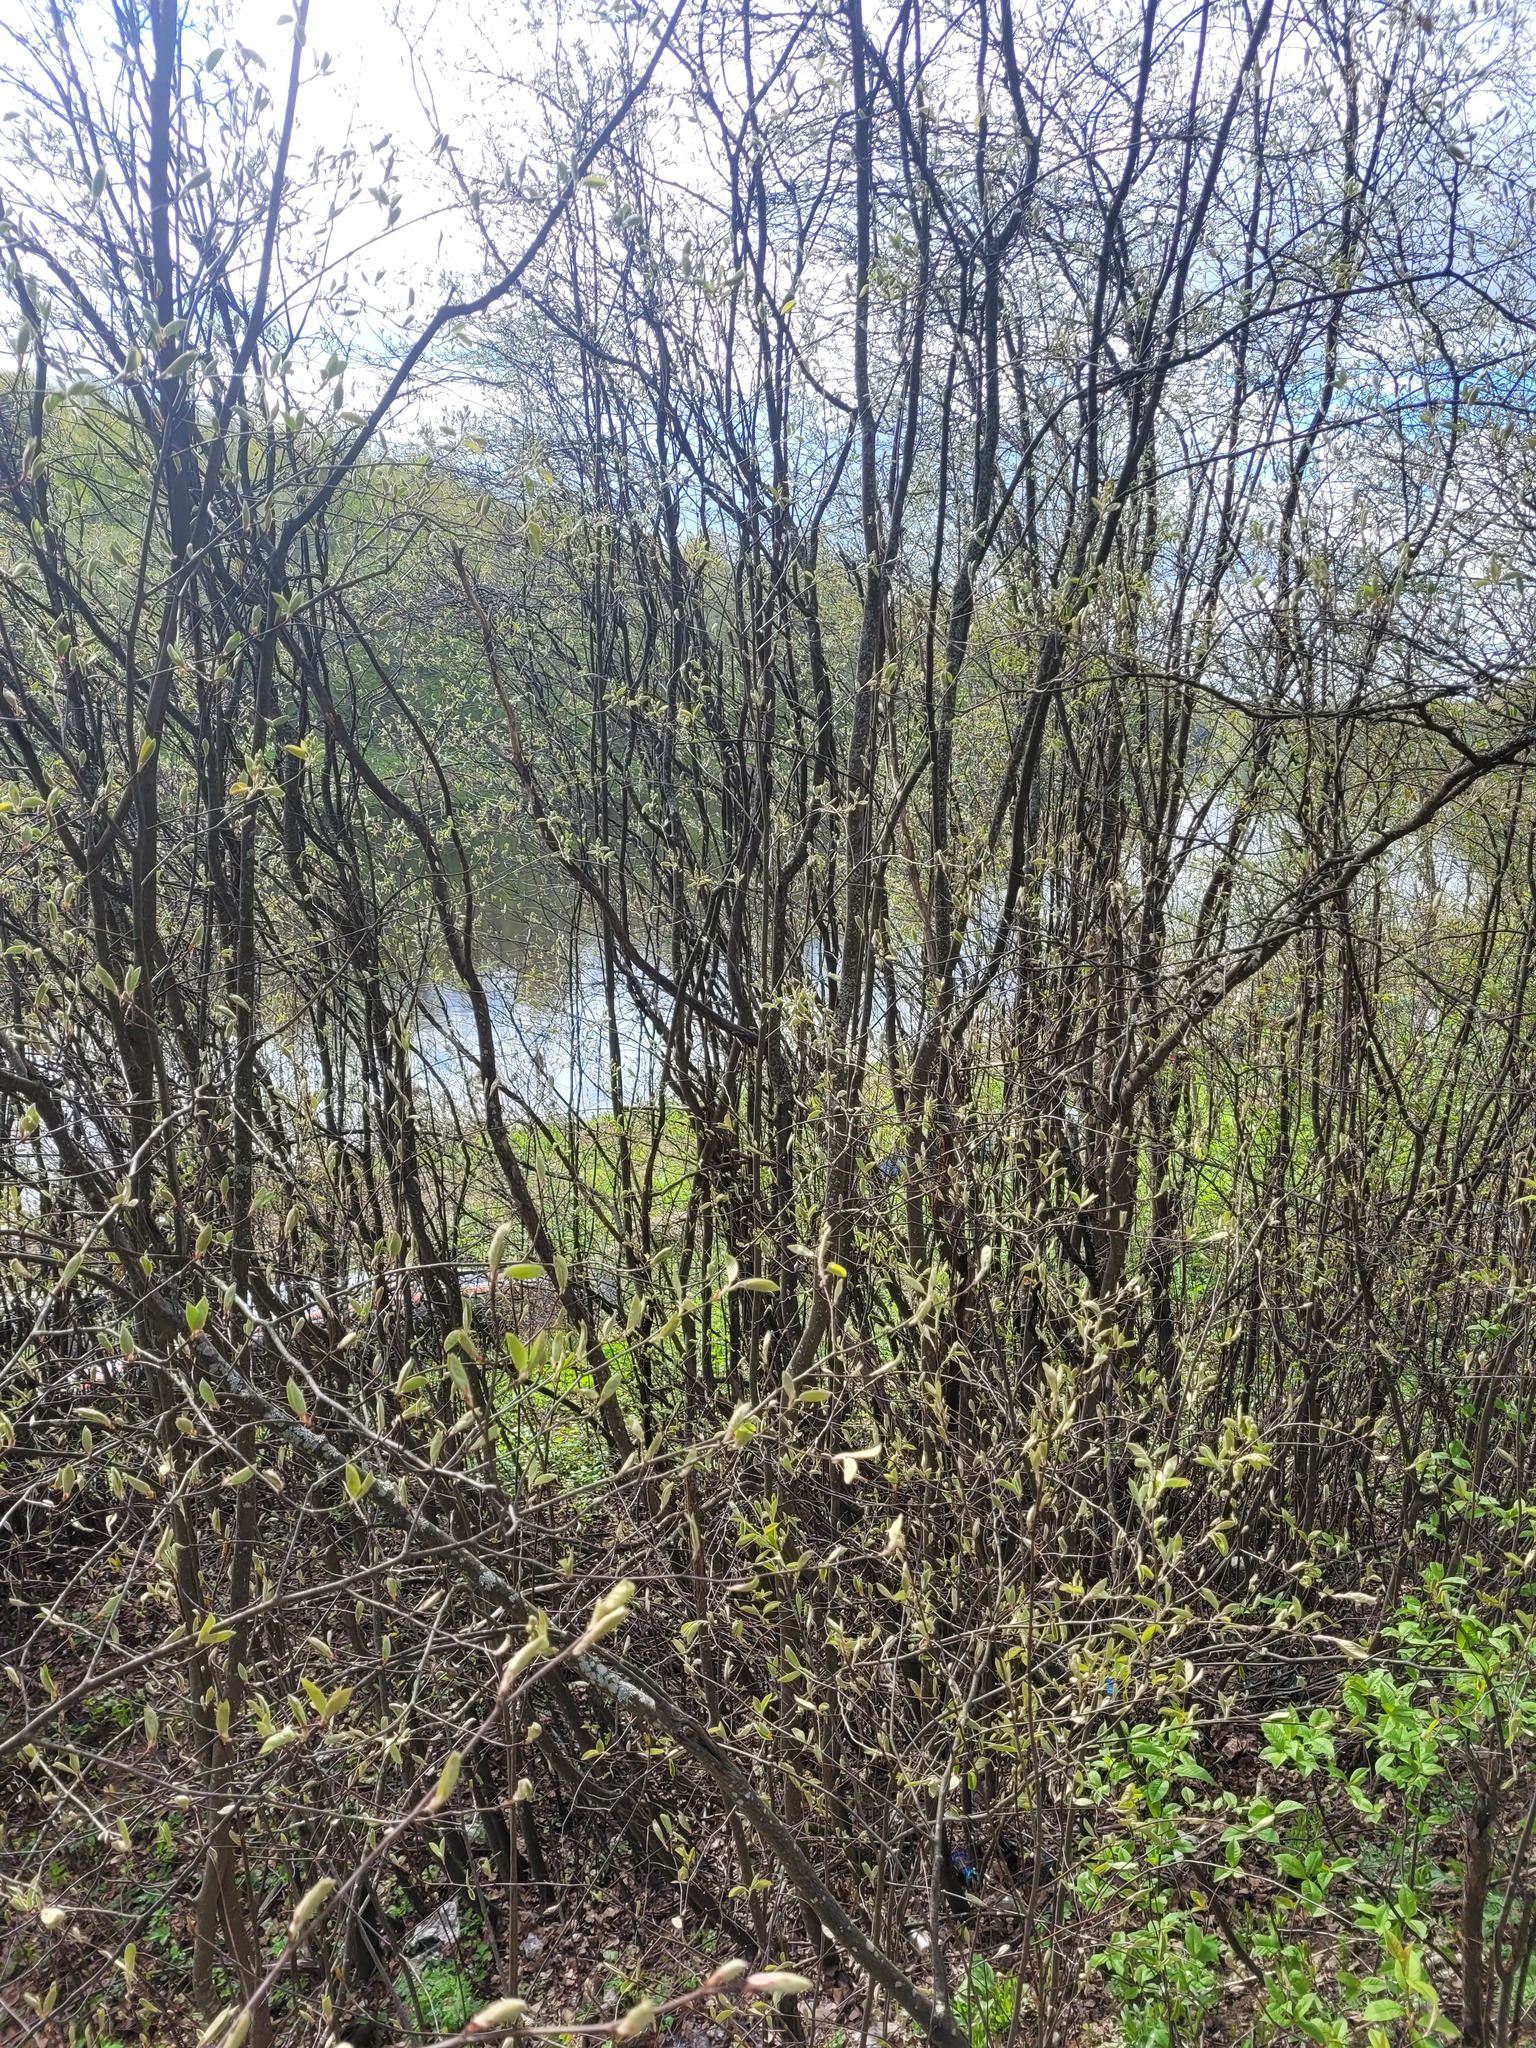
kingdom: Plantae
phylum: Tracheophyta
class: Magnoliopsida
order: Rosales
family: Rosaceae
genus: Amelanchier
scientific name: Amelanchier
